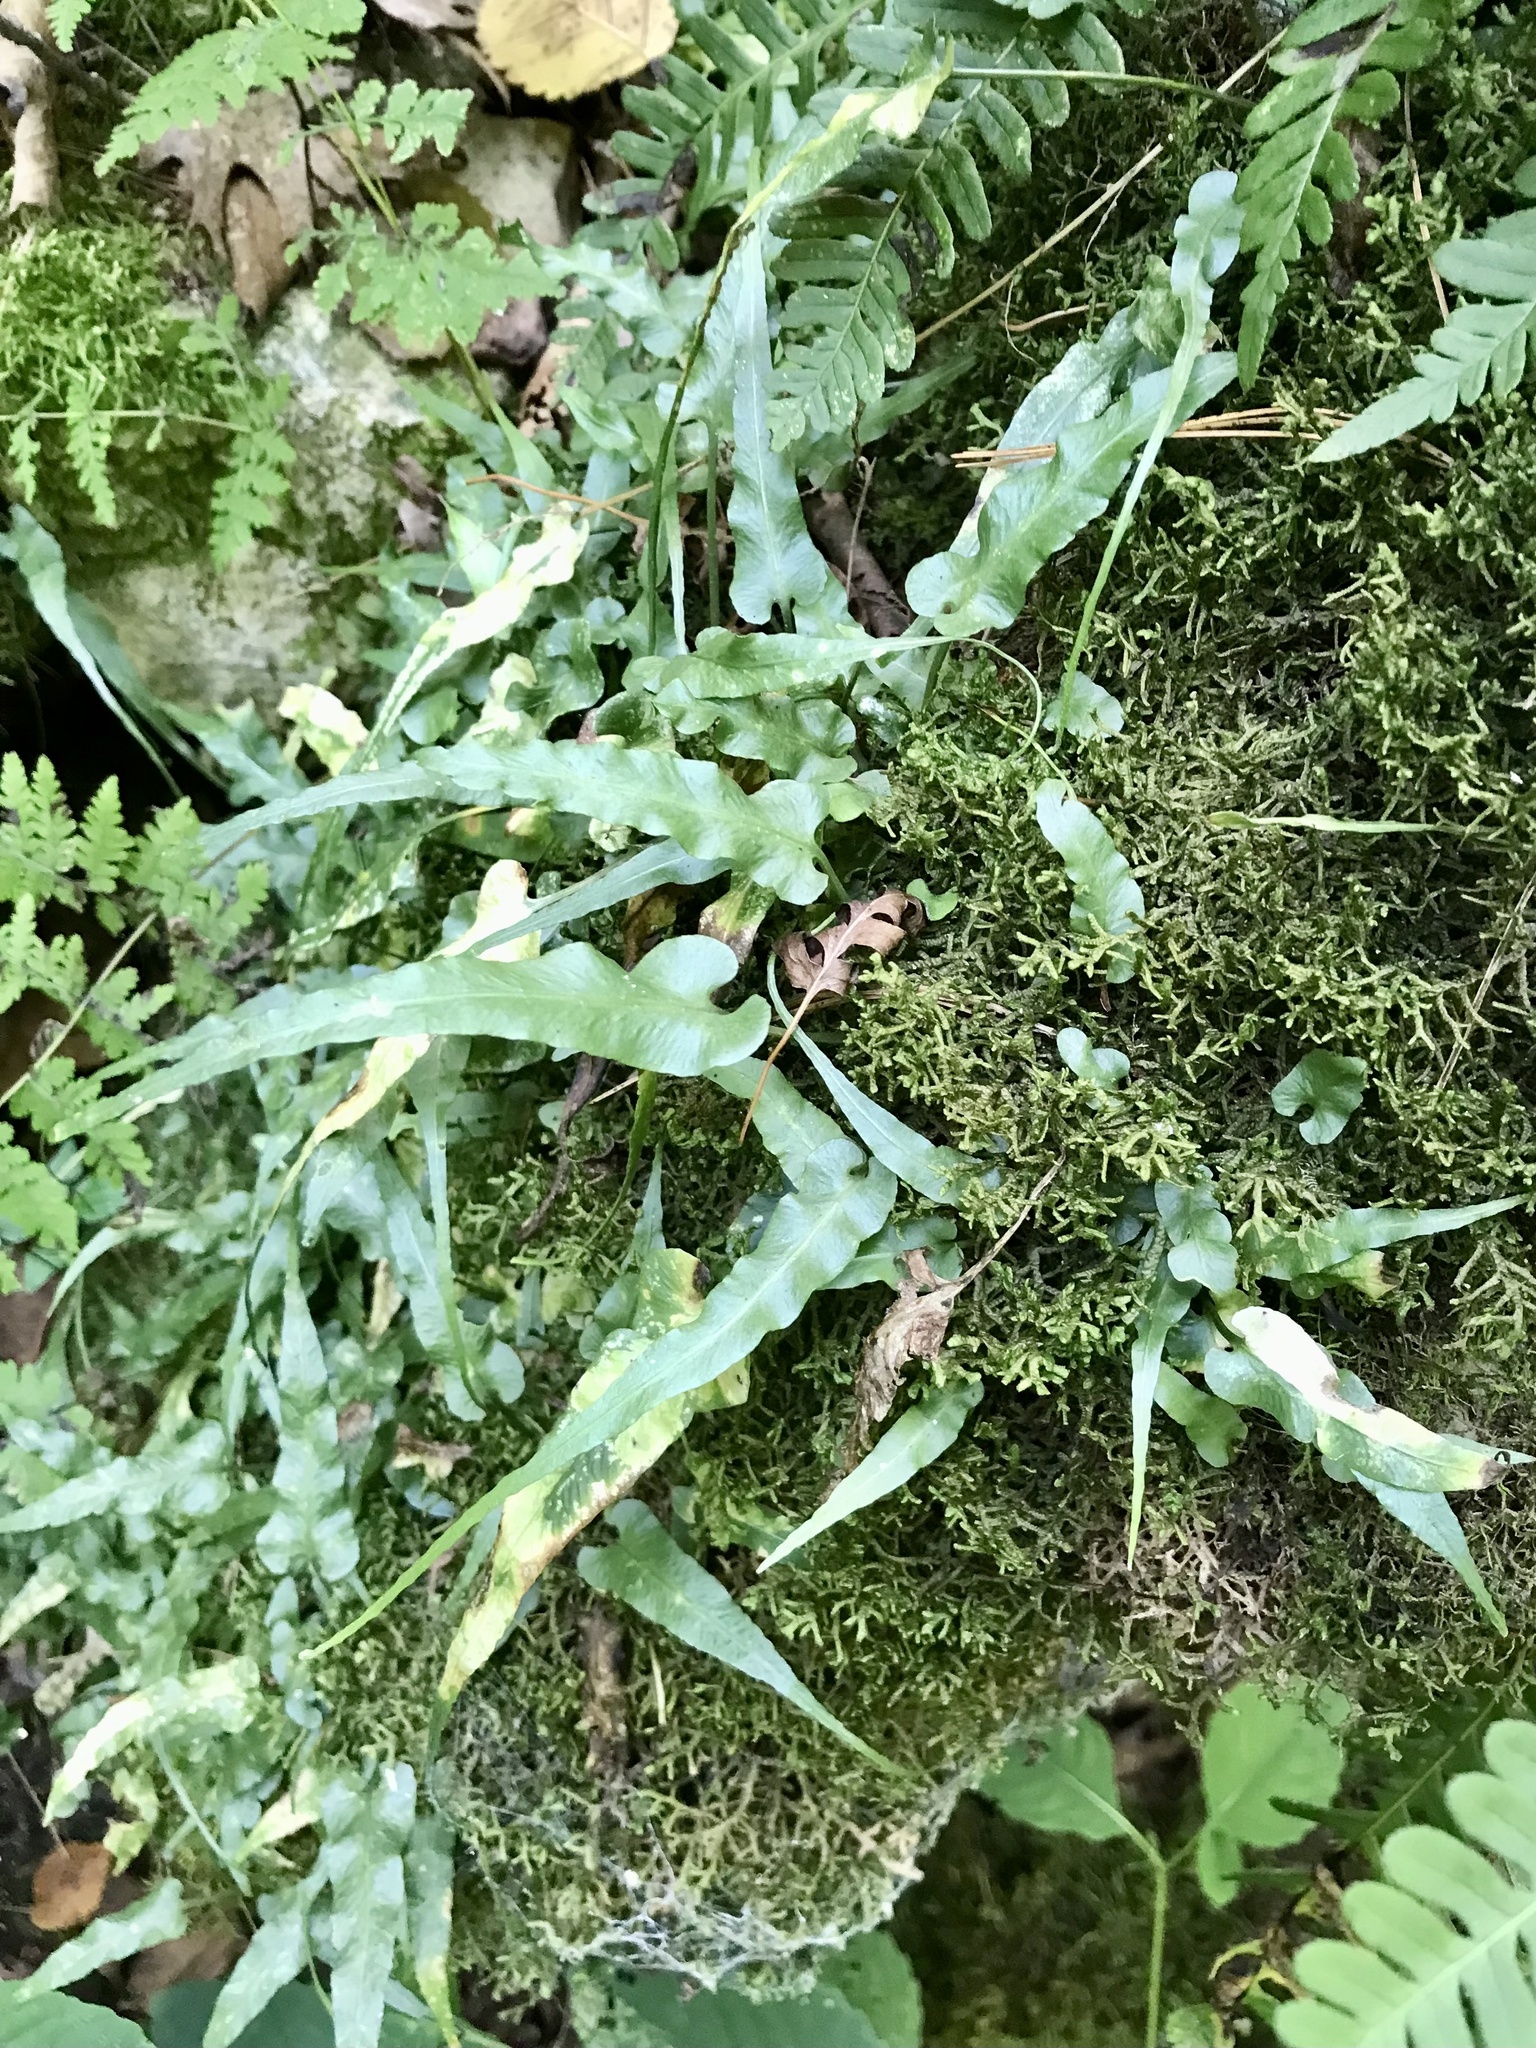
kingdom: Plantae
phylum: Tracheophyta
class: Polypodiopsida
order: Polypodiales
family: Aspleniaceae
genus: Asplenium
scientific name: Asplenium rhizophyllum
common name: Walking fern
